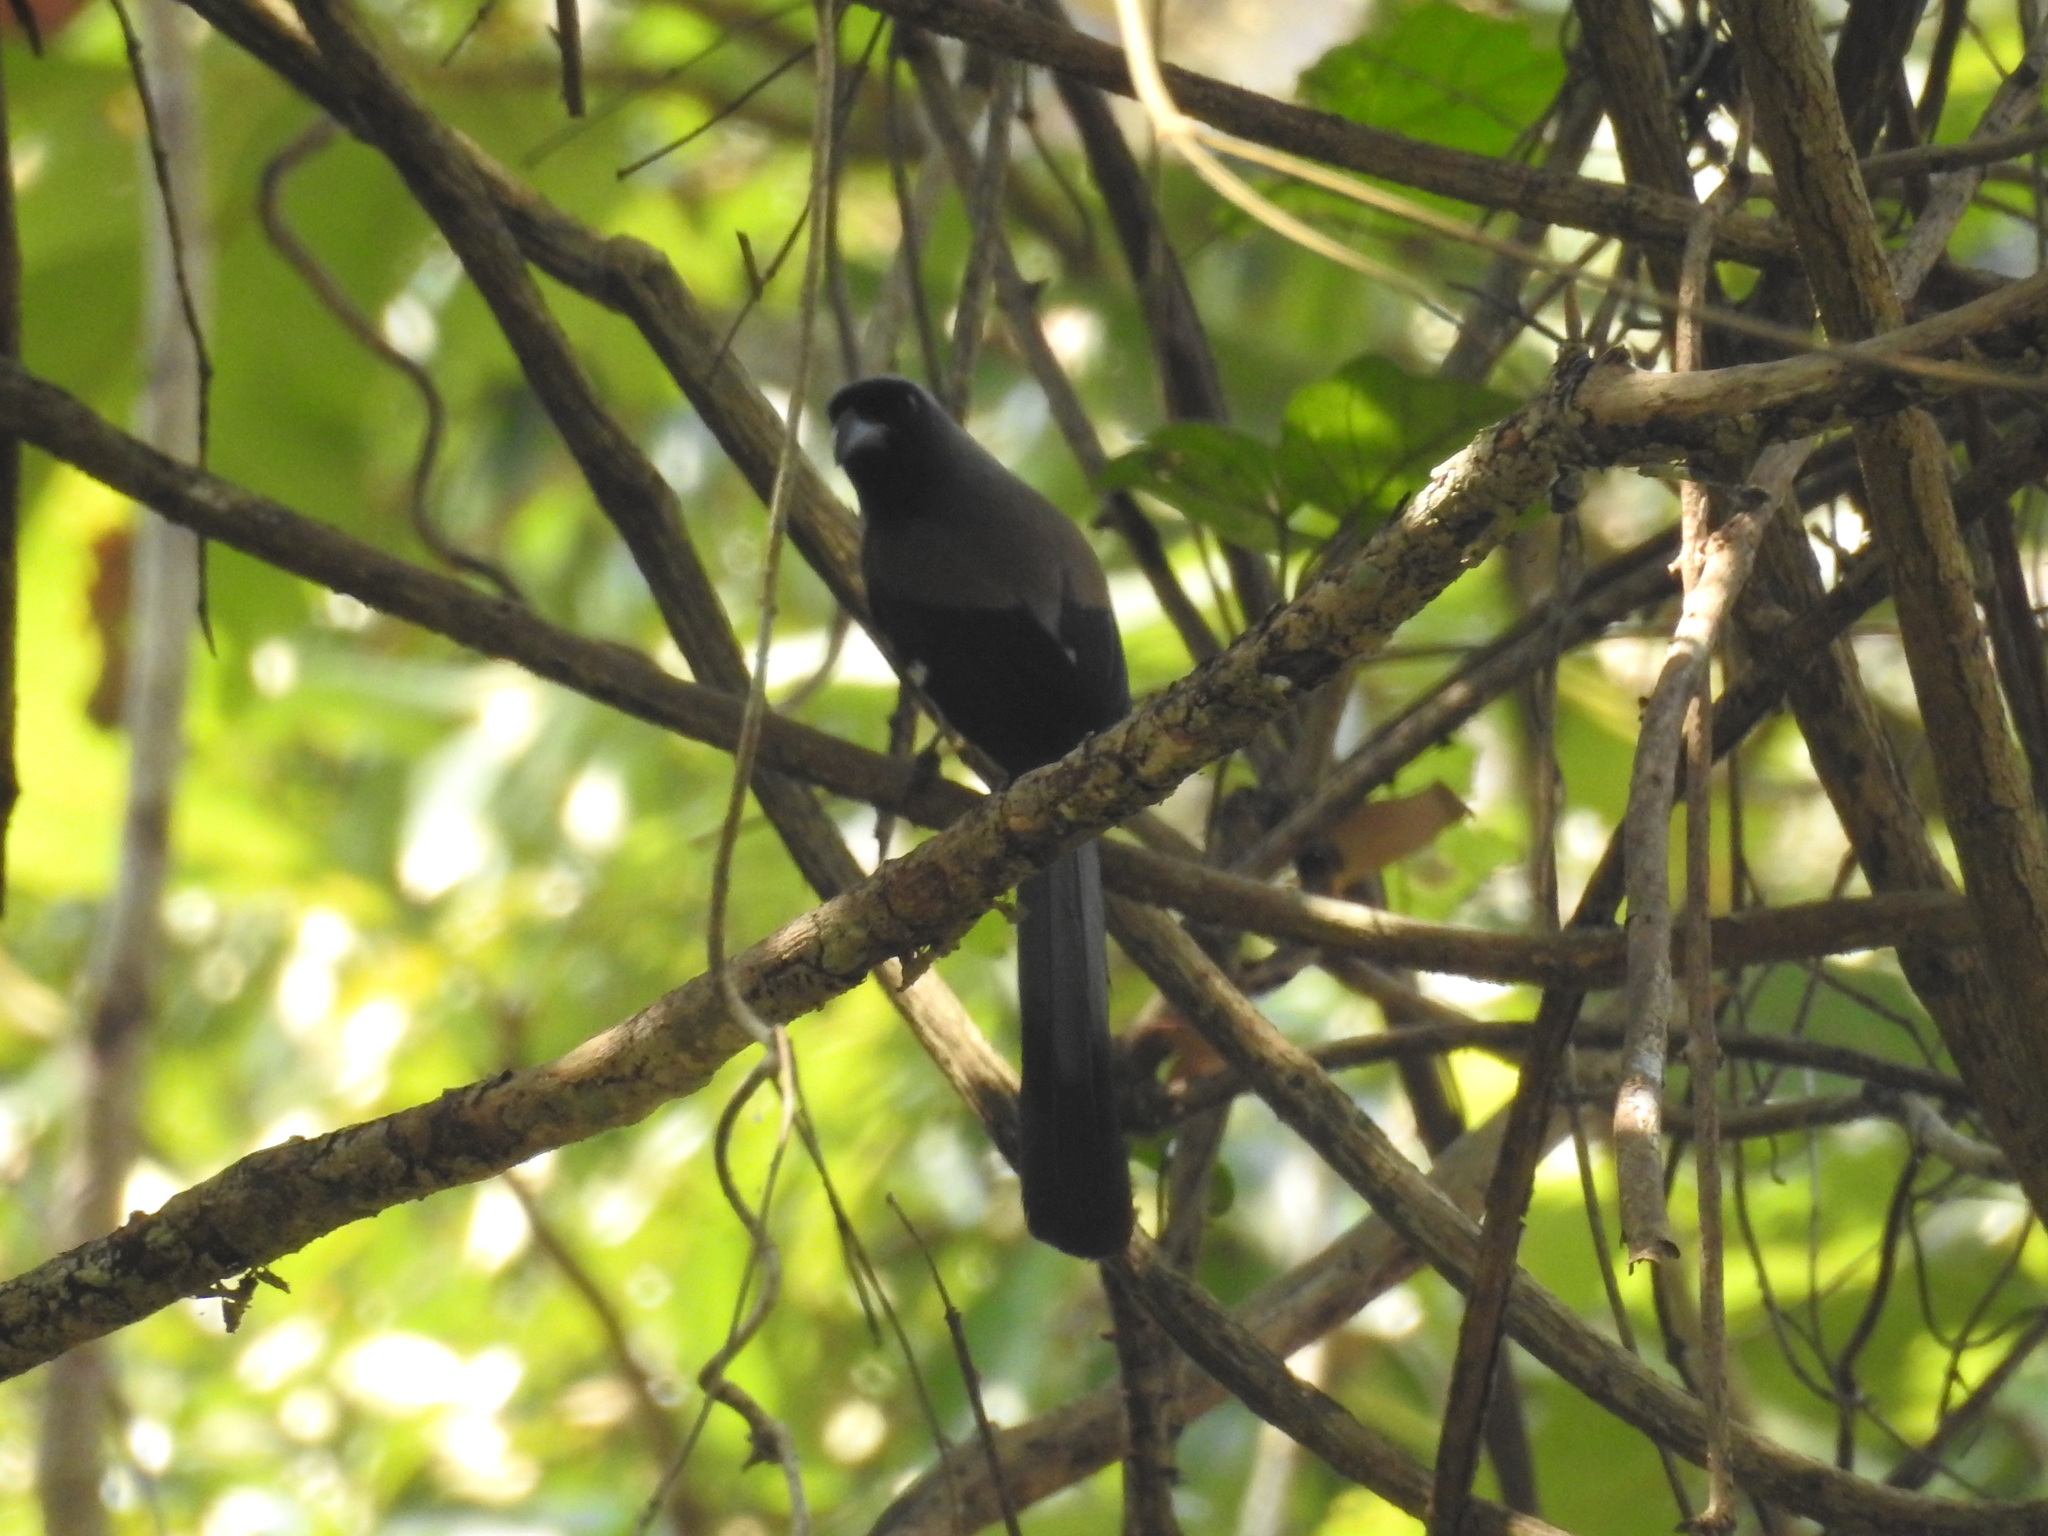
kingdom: Animalia
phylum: Chordata
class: Aves
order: Passeriformes
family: Corvidae
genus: Dendrocitta
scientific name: Dendrocitta formosae
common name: Grey treepie
